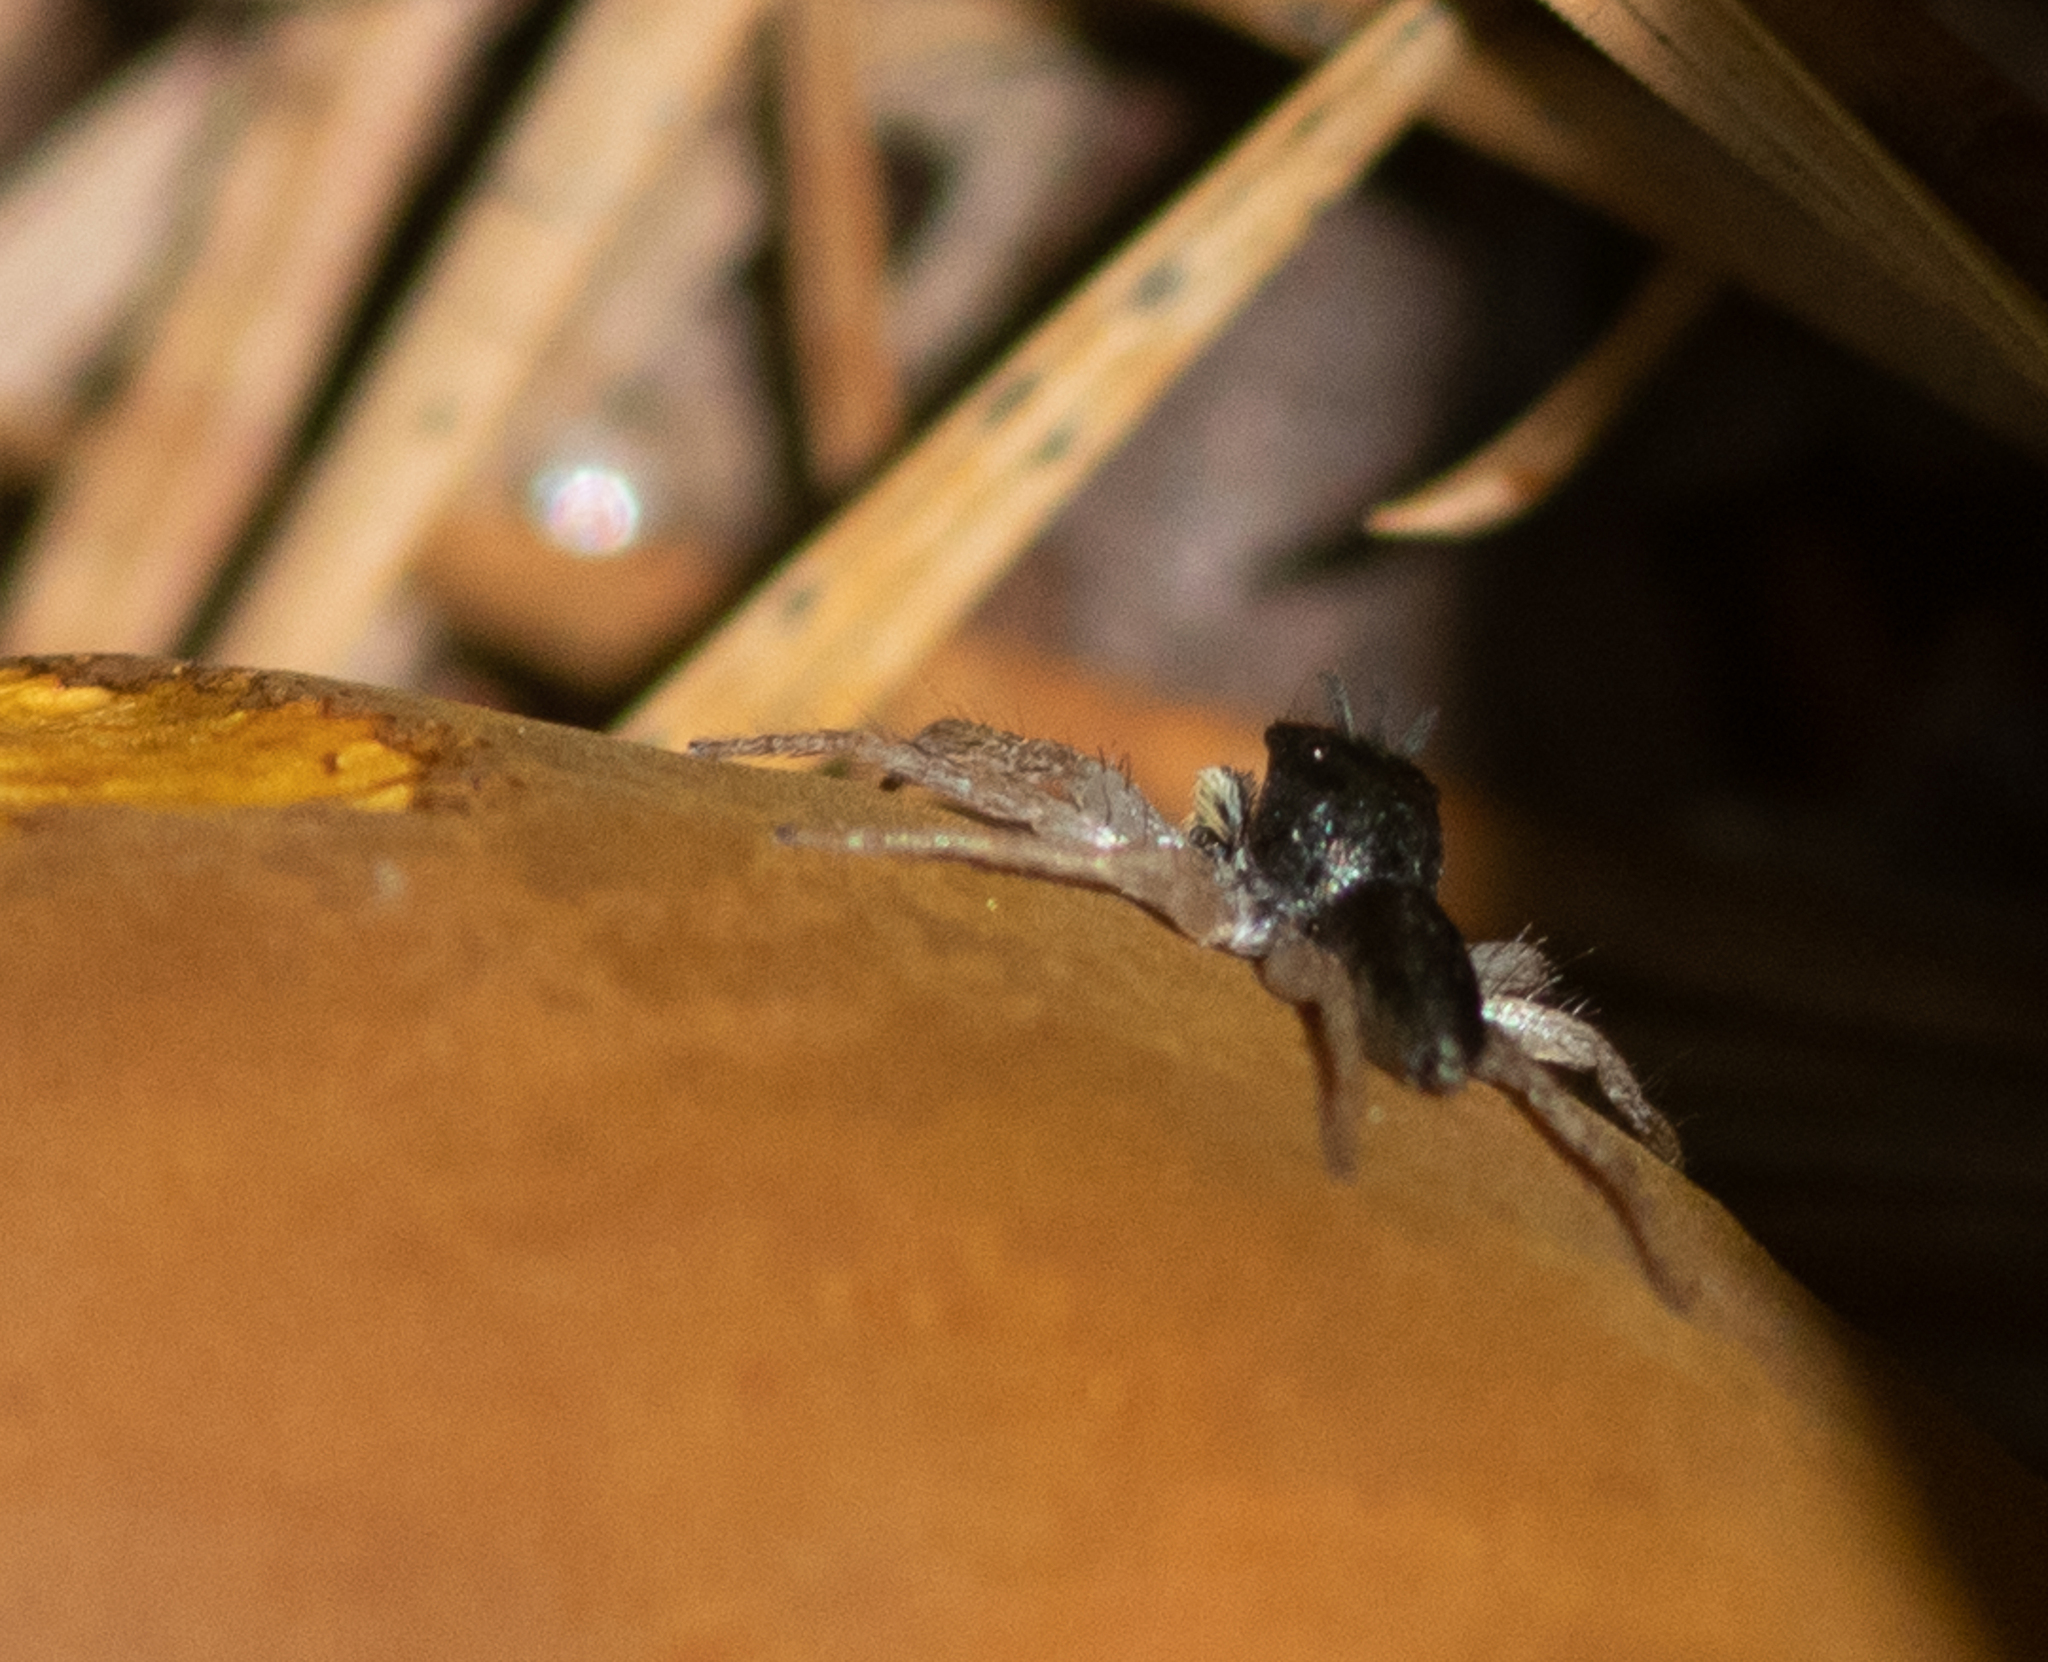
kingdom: Animalia
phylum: Arthropoda
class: Arachnida
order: Araneae
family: Salticidae
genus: Maevia
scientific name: Maevia inclemens
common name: Dimorphic jumper
